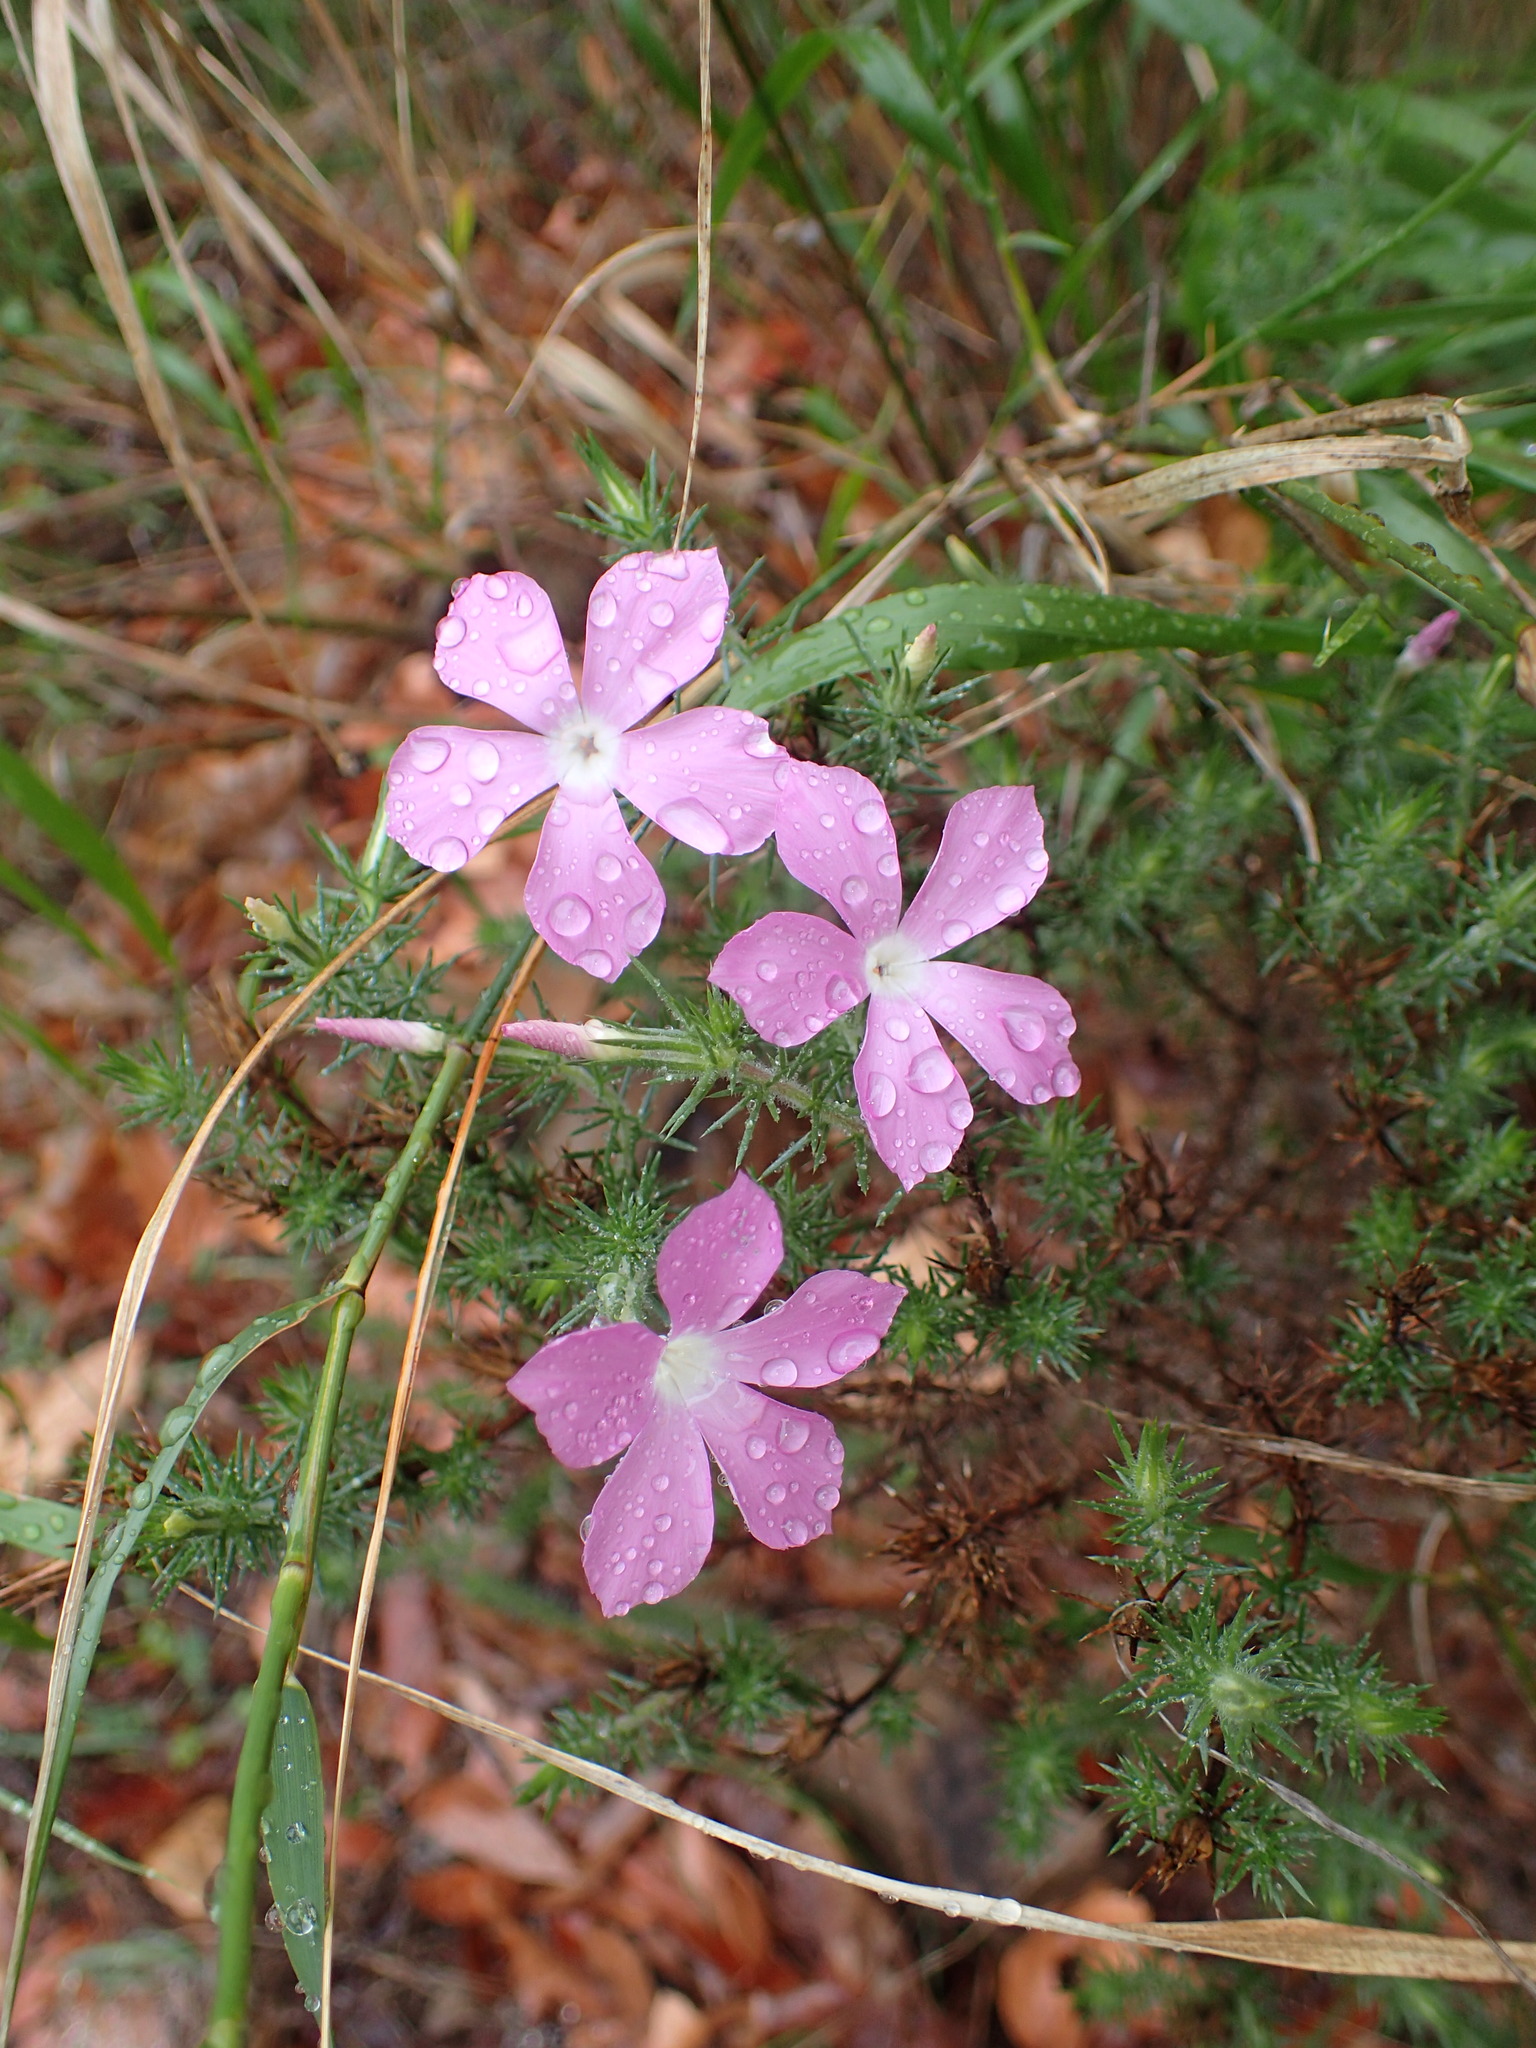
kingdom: Plantae
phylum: Tracheophyta
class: Magnoliopsida
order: Ericales
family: Polemoniaceae
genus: Linanthus
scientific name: Linanthus californicus
